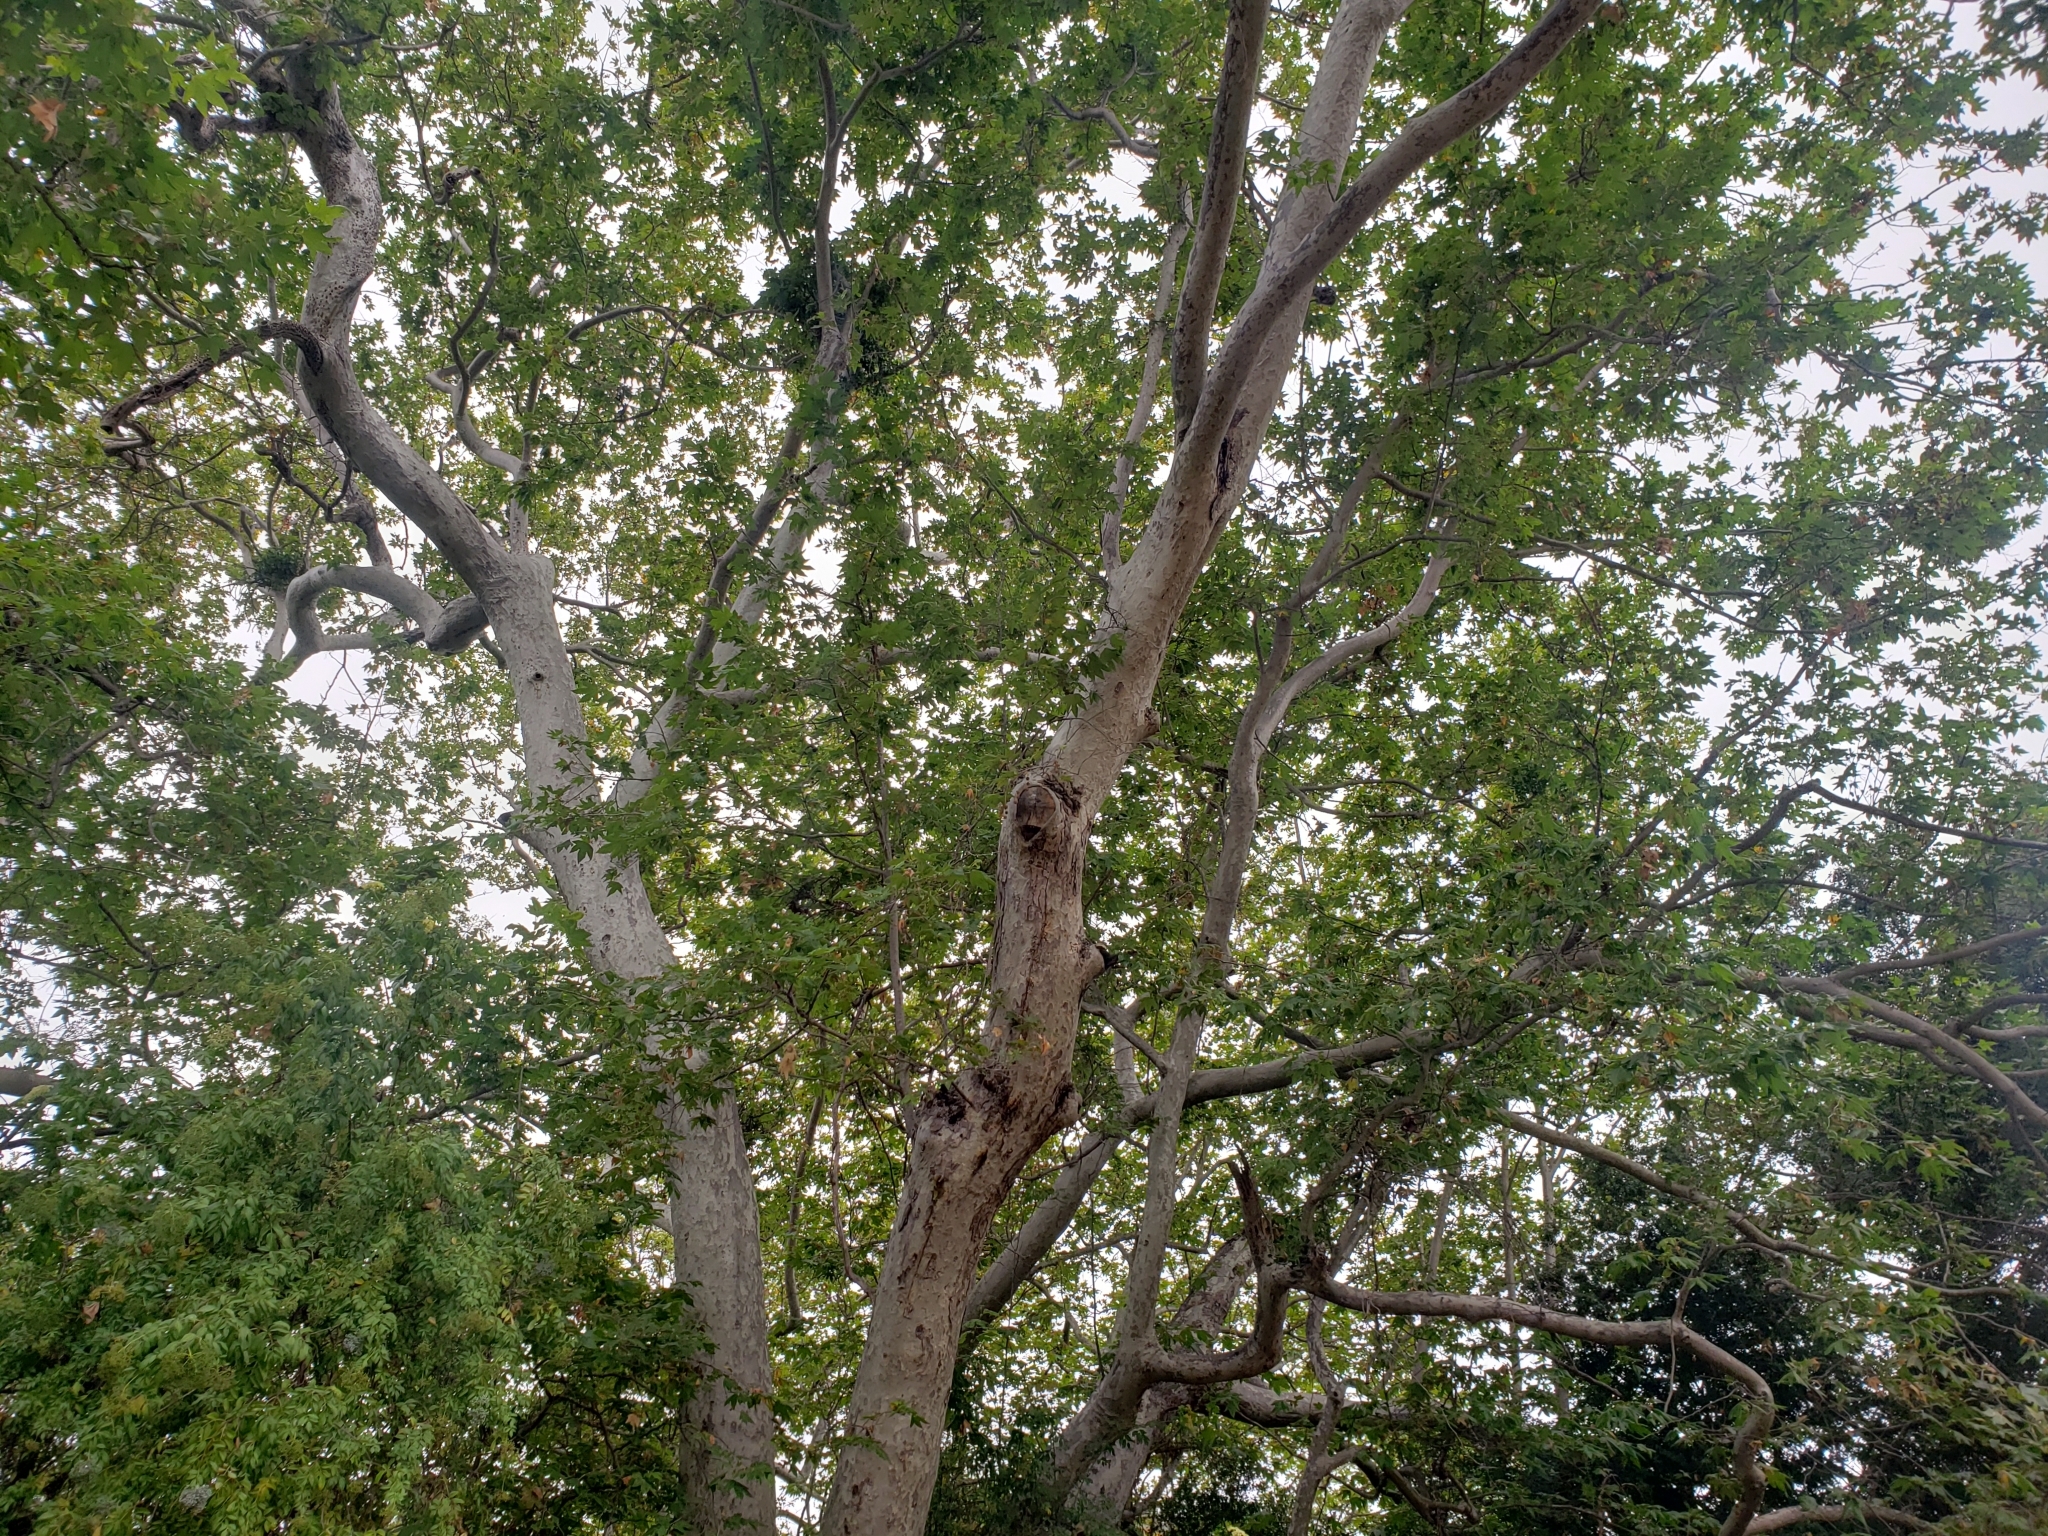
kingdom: Plantae
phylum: Tracheophyta
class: Magnoliopsida
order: Proteales
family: Platanaceae
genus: Platanus
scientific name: Platanus racemosa
